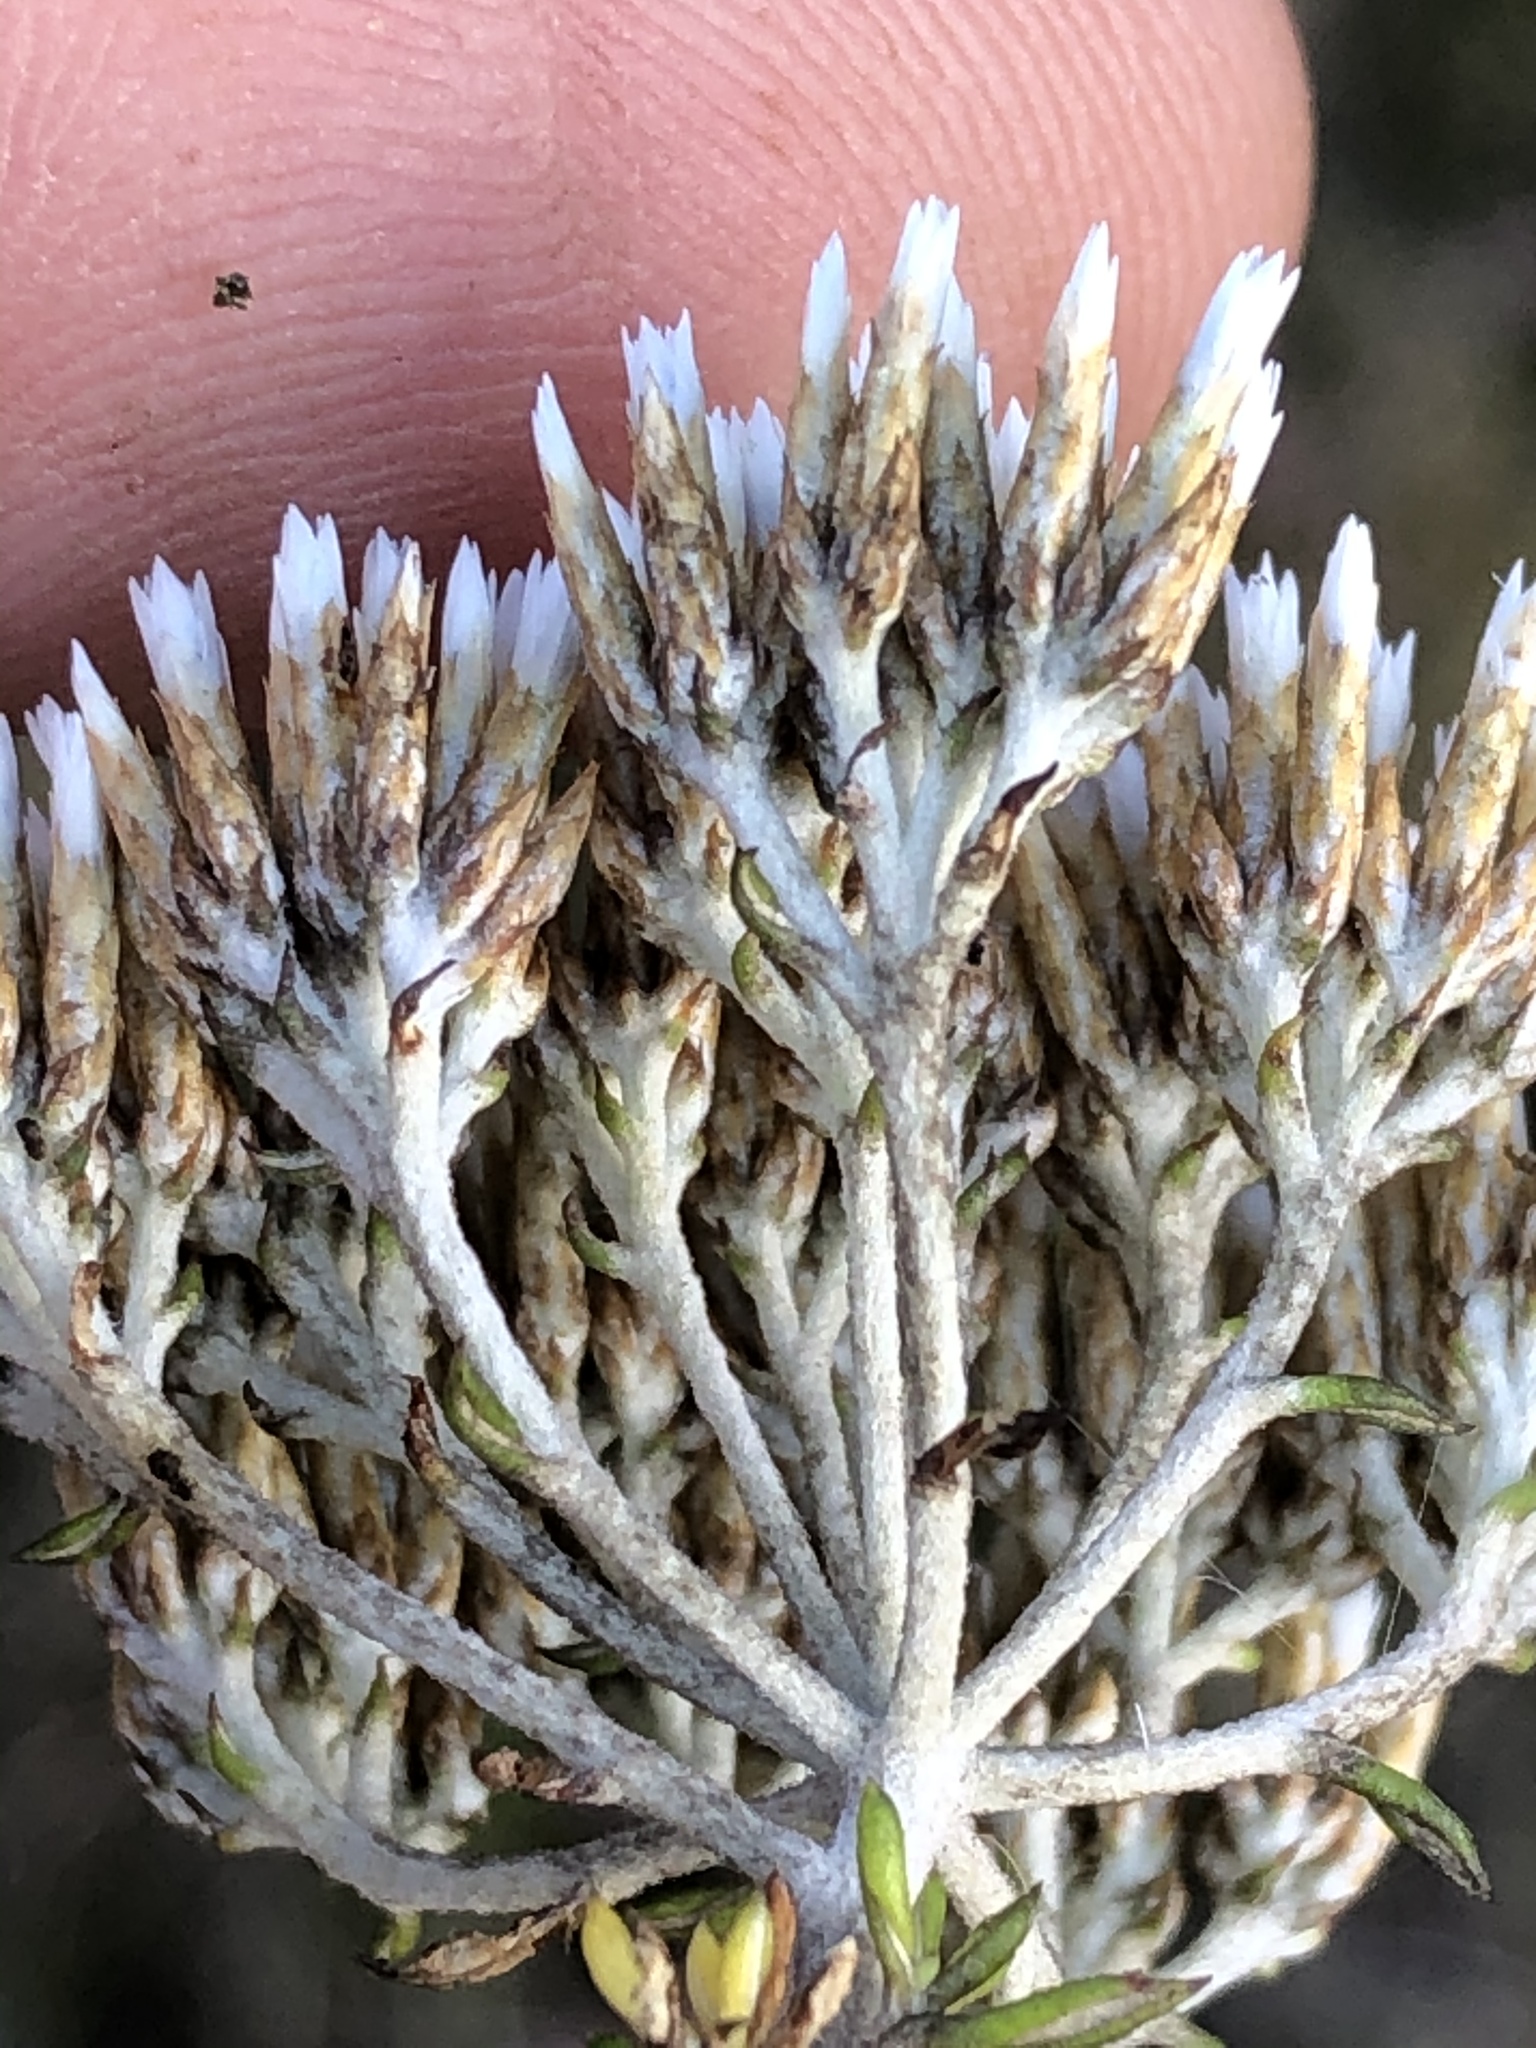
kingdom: Plantae
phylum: Tracheophyta
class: Magnoliopsida
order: Asterales
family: Asteraceae
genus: Metalasia
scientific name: Metalasia densa
